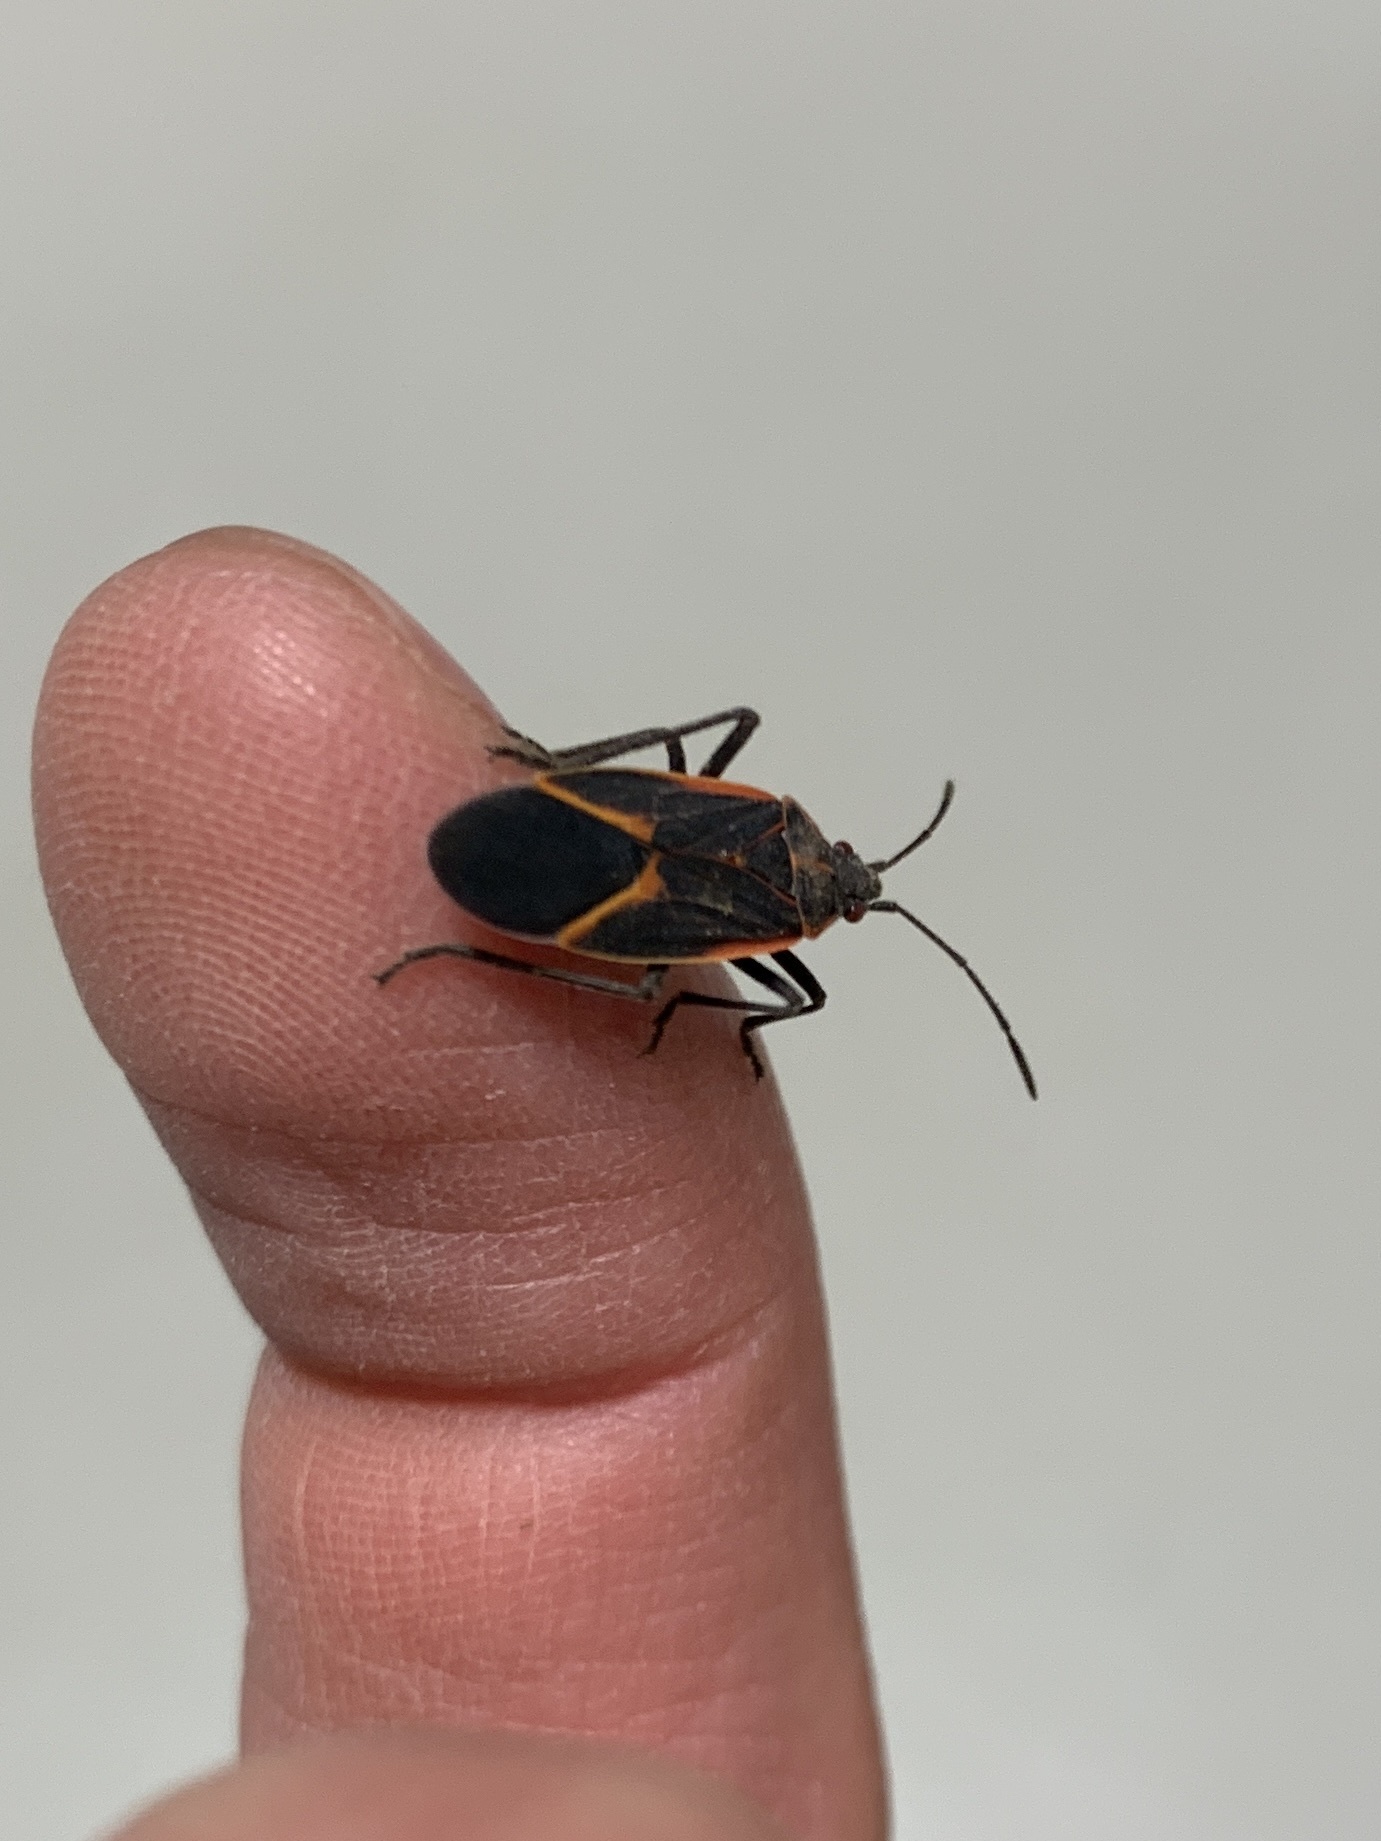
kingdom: Animalia
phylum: Arthropoda
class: Insecta
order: Hemiptera
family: Rhopalidae
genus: Boisea
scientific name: Boisea trivittata
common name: Boxelder bug
